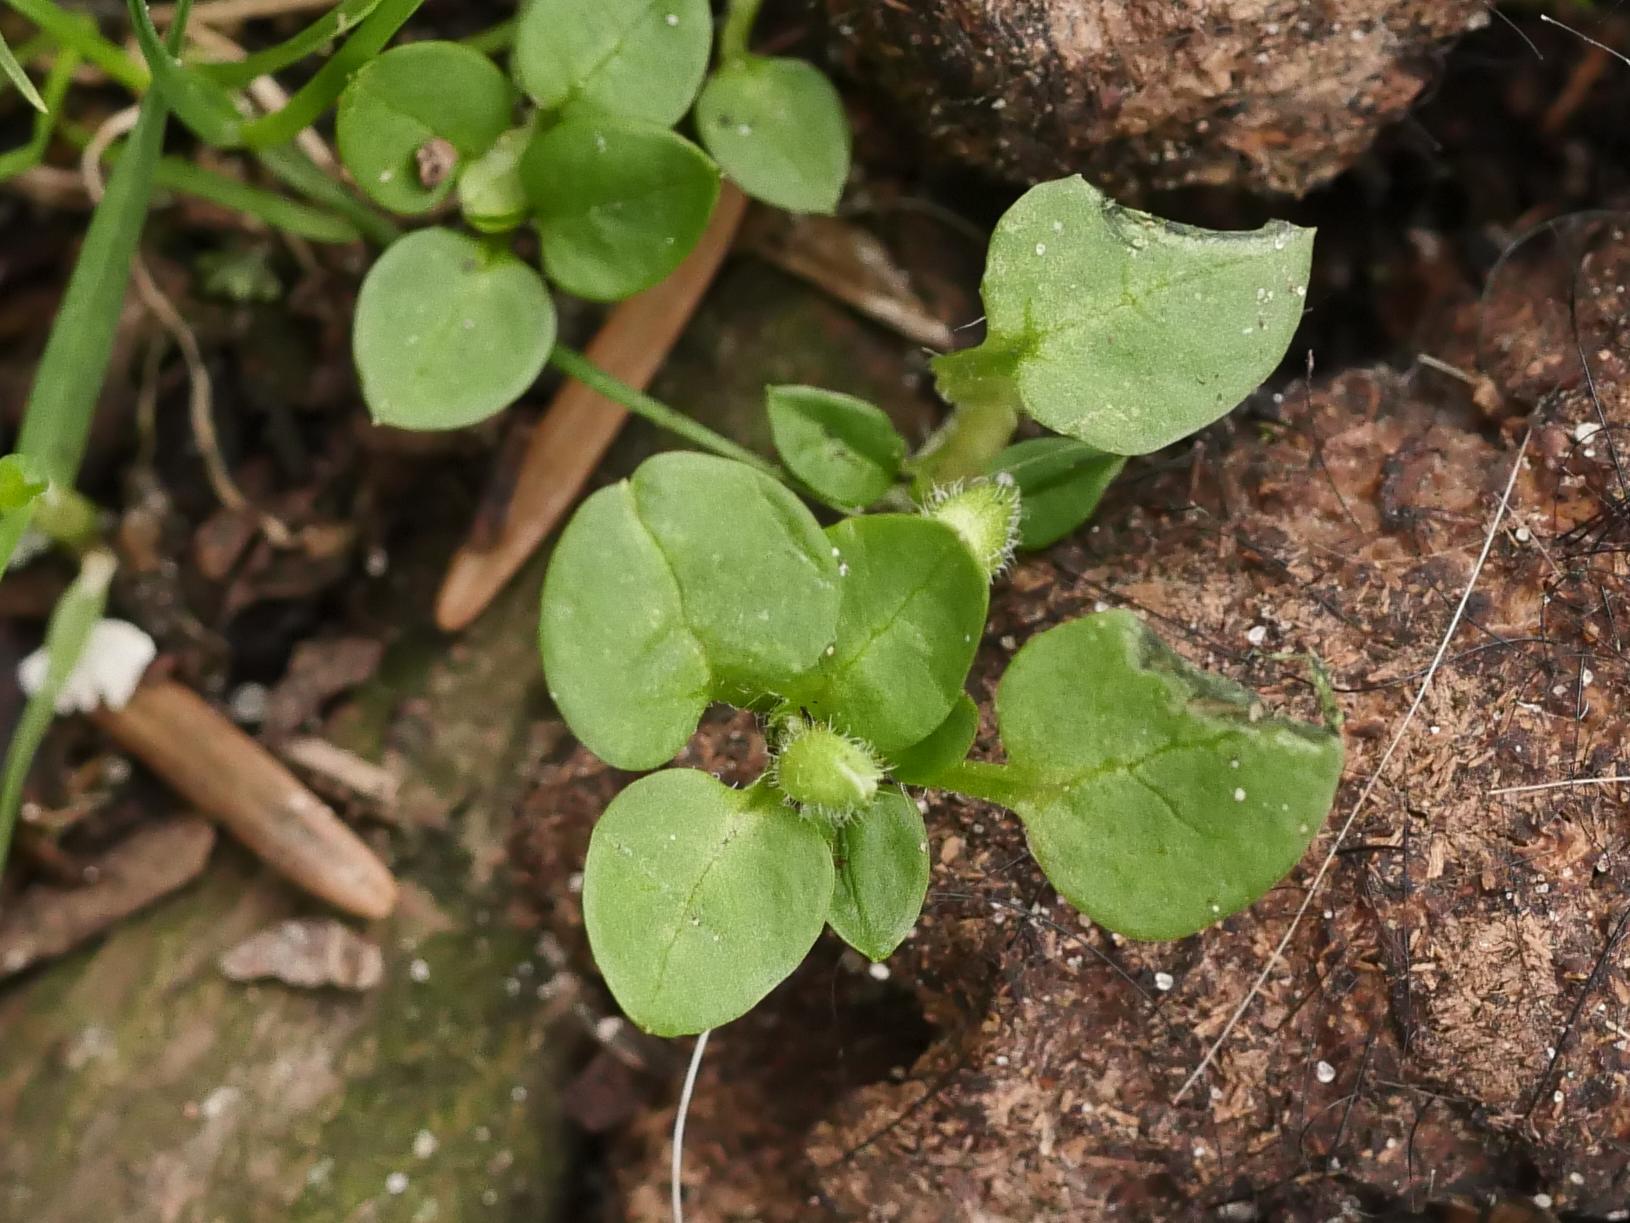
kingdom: Plantae
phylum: Tracheophyta
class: Magnoliopsida
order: Caryophyllales
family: Caryophyllaceae
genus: Stellaria
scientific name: Stellaria media
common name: Common chickweed
